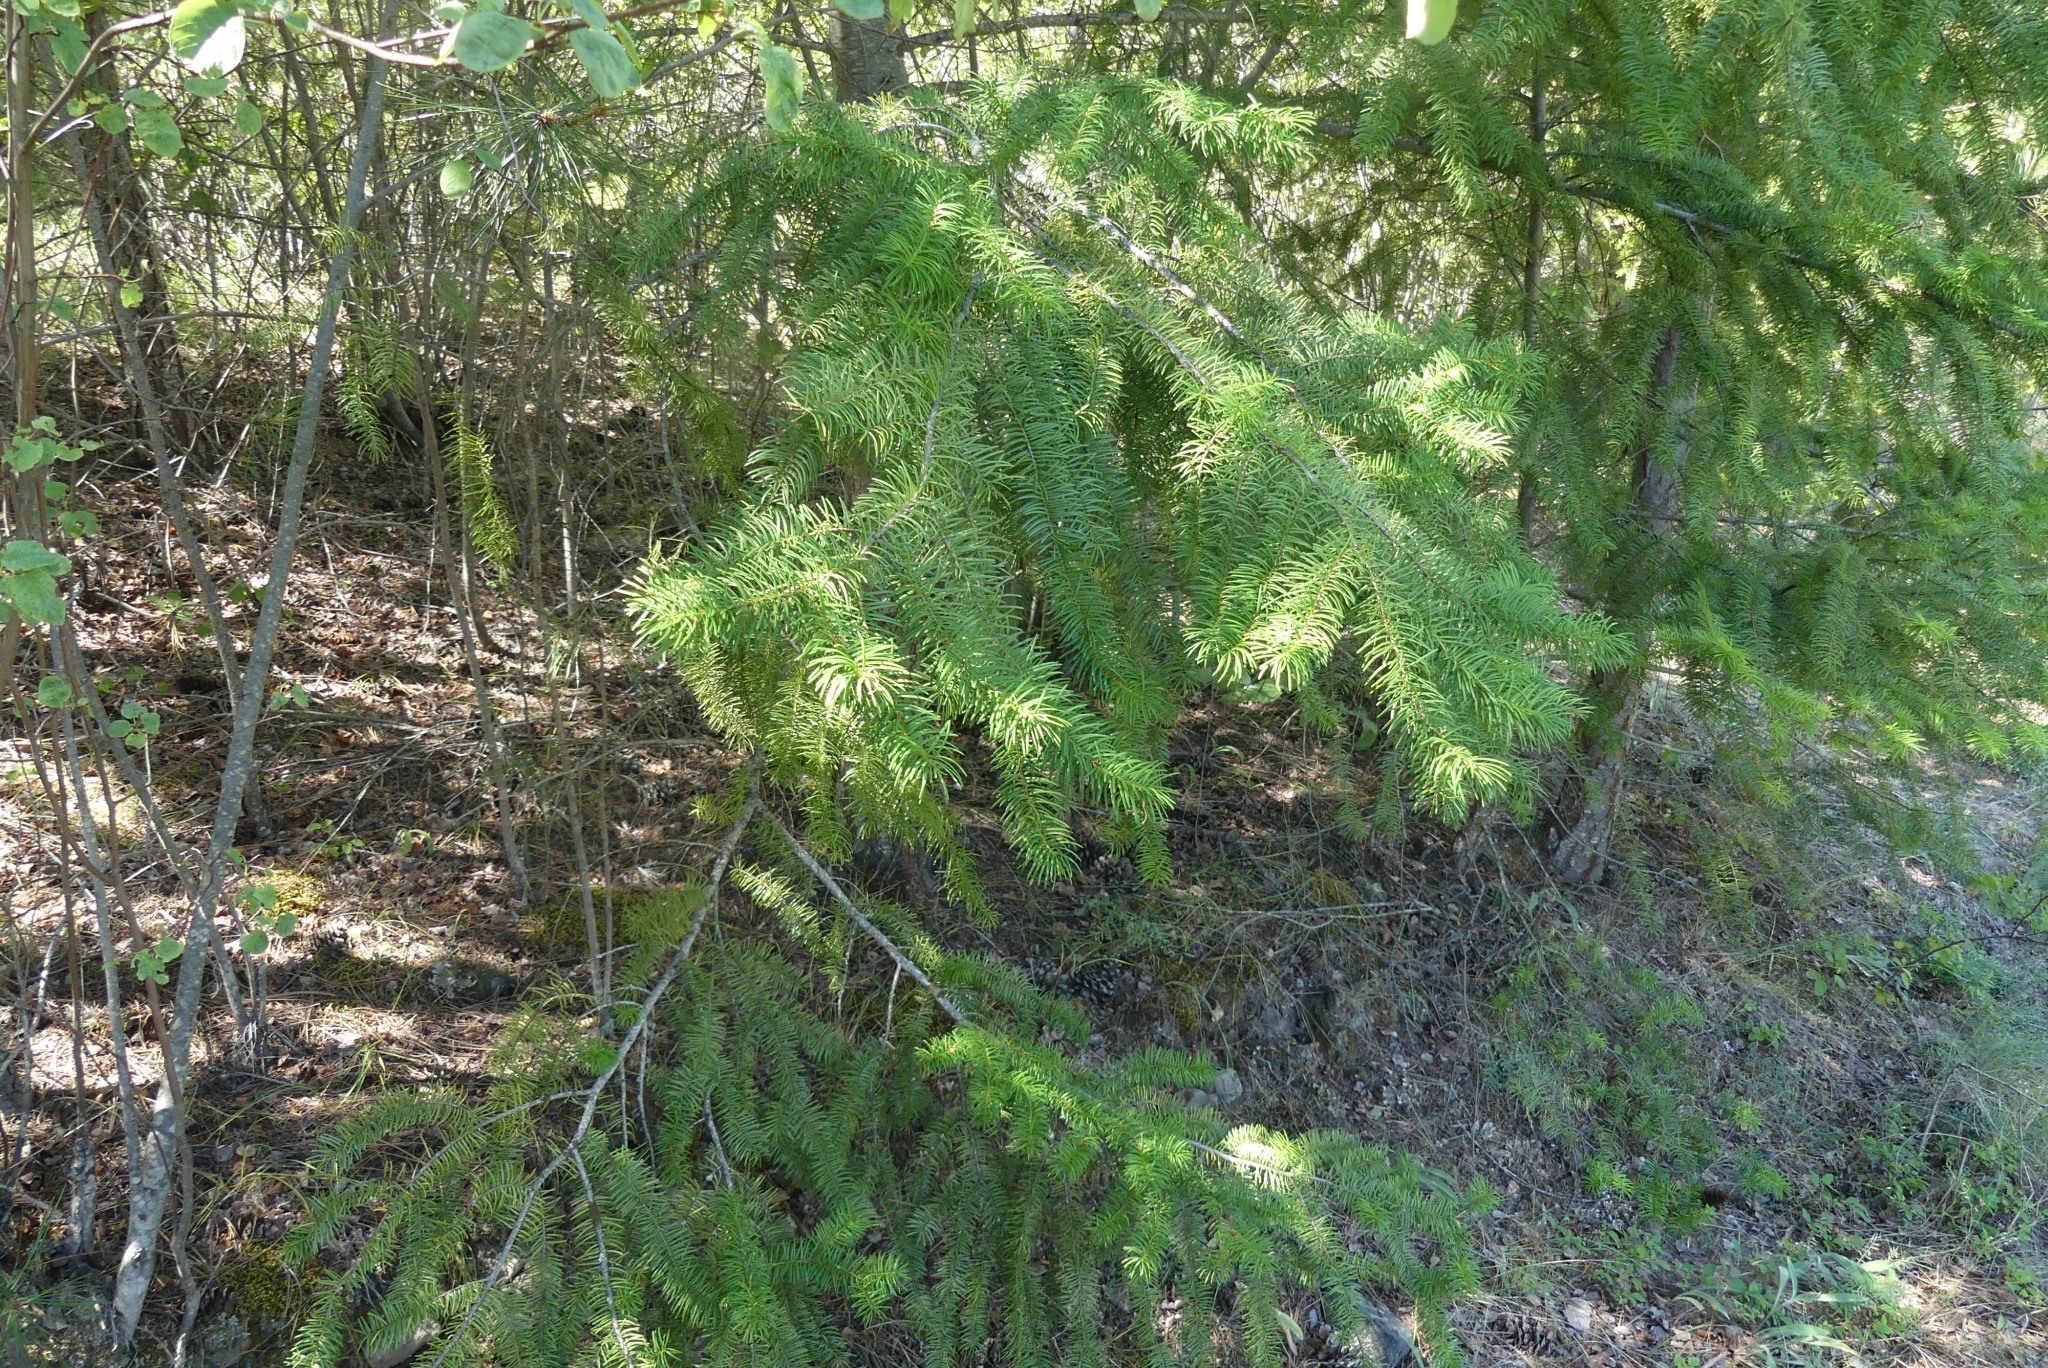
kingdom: Plantae
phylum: Tracheophyta
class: Pinopsida
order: Pinales
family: Pinaceae
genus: Pseudotsuga
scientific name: Pseudotsuga menziesii
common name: Douglas fir
